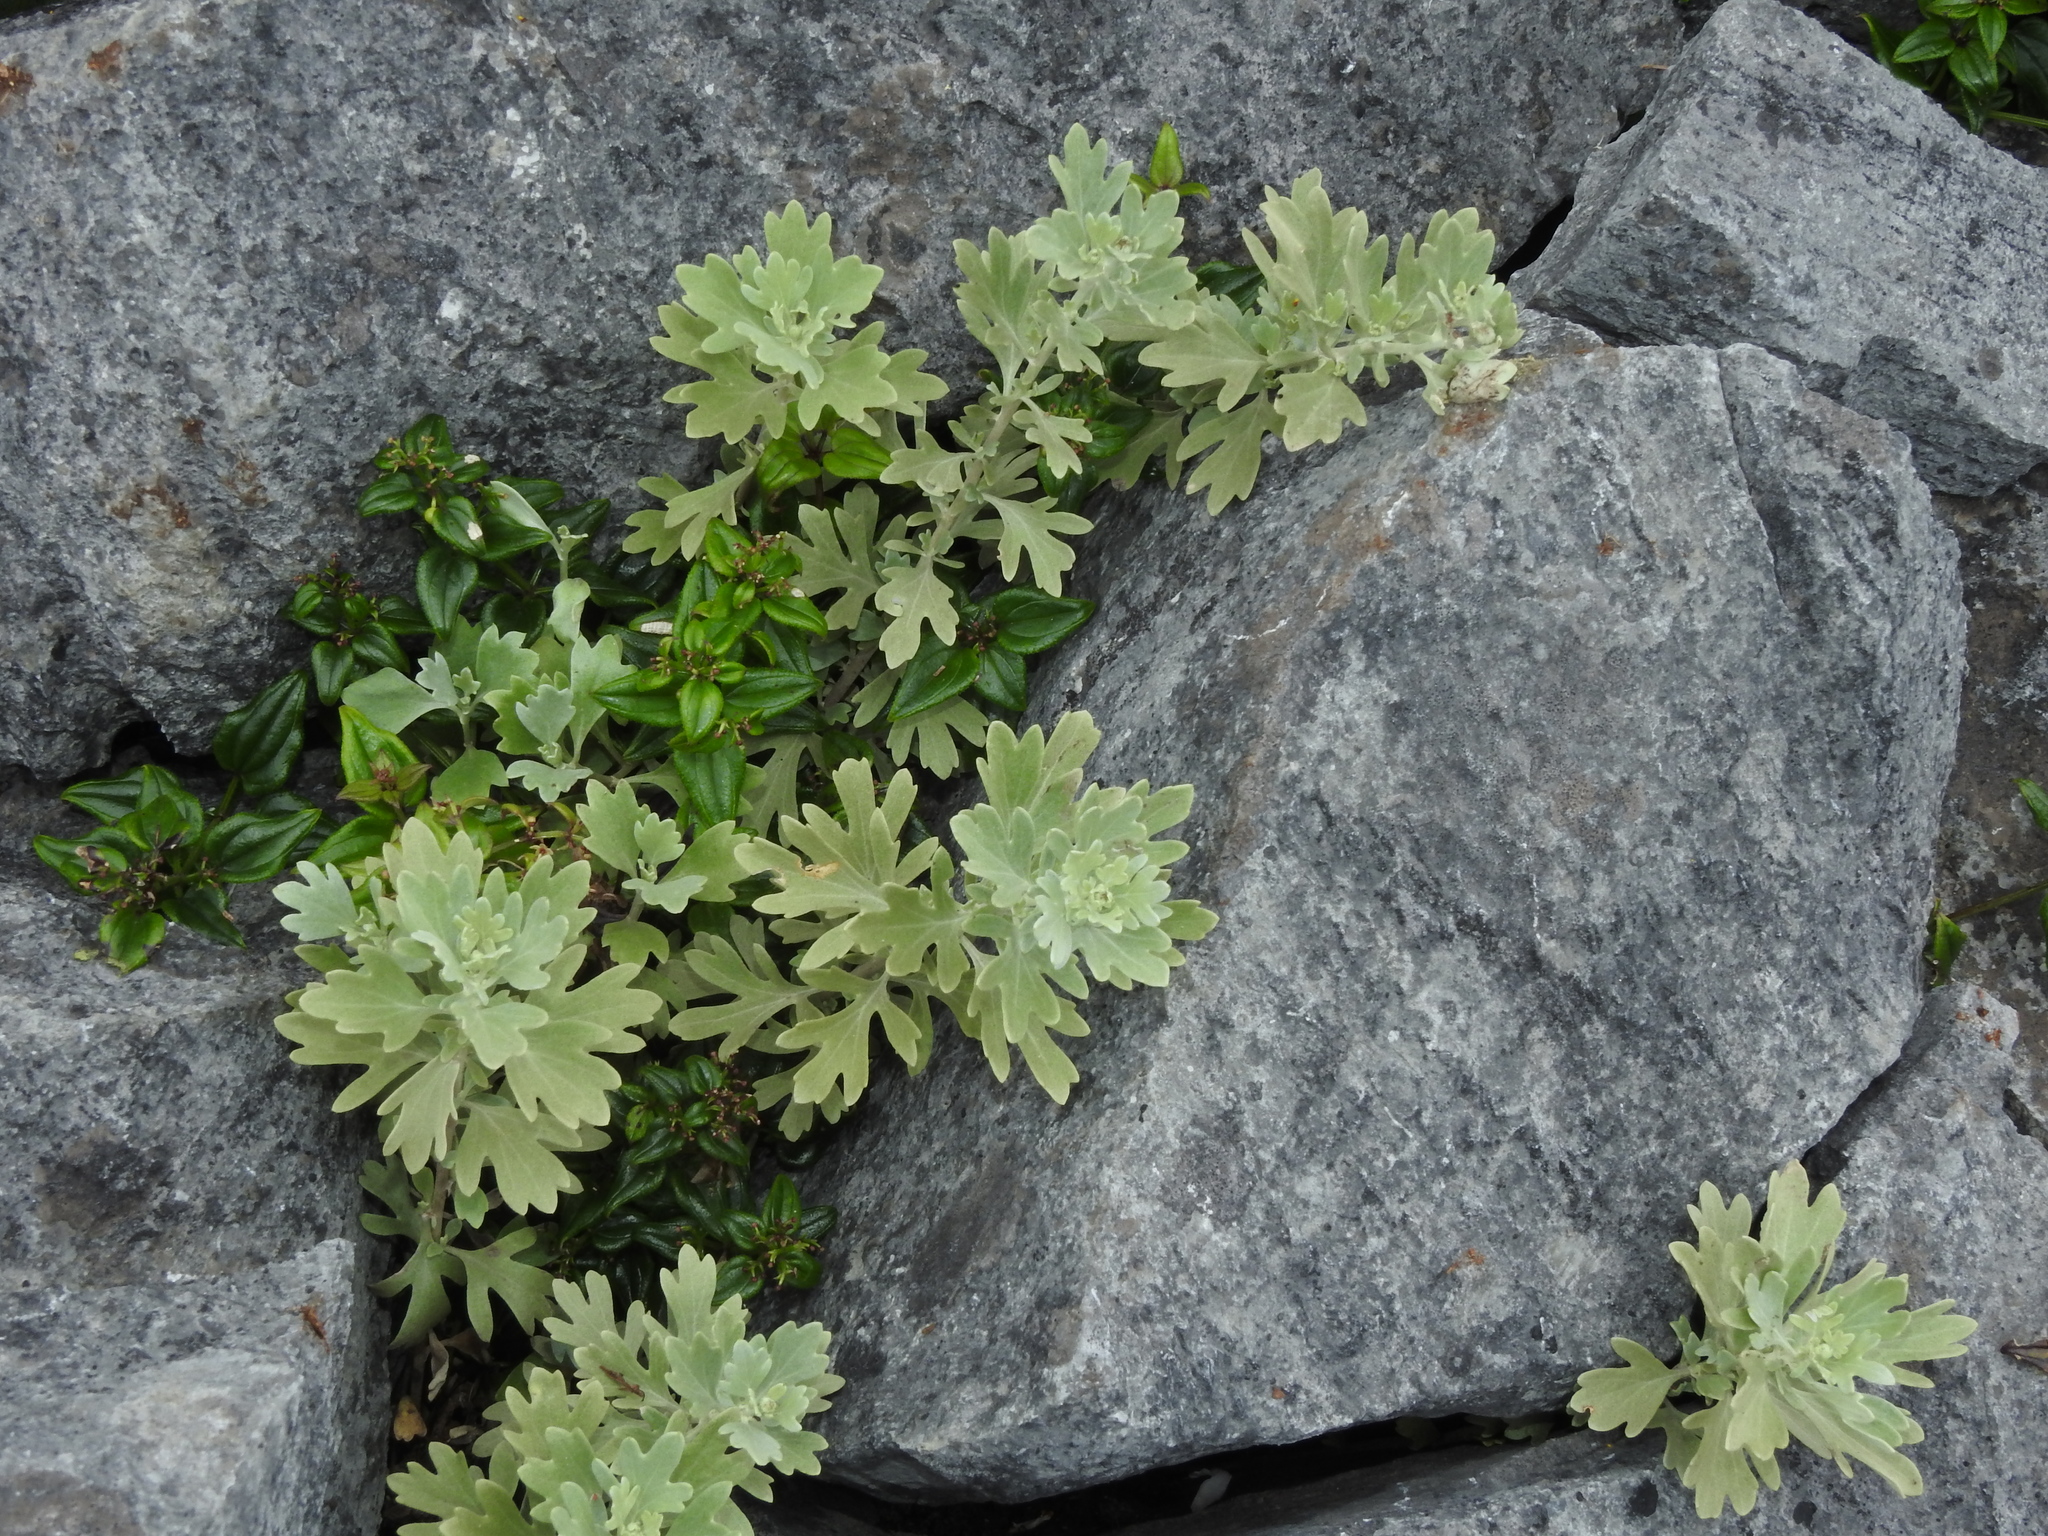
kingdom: Plantae
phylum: Tracheophyta
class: Magnoliopsida
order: Asterales
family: Asteraceae
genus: Chrysanthemum
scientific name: Chrysanthemum morii
